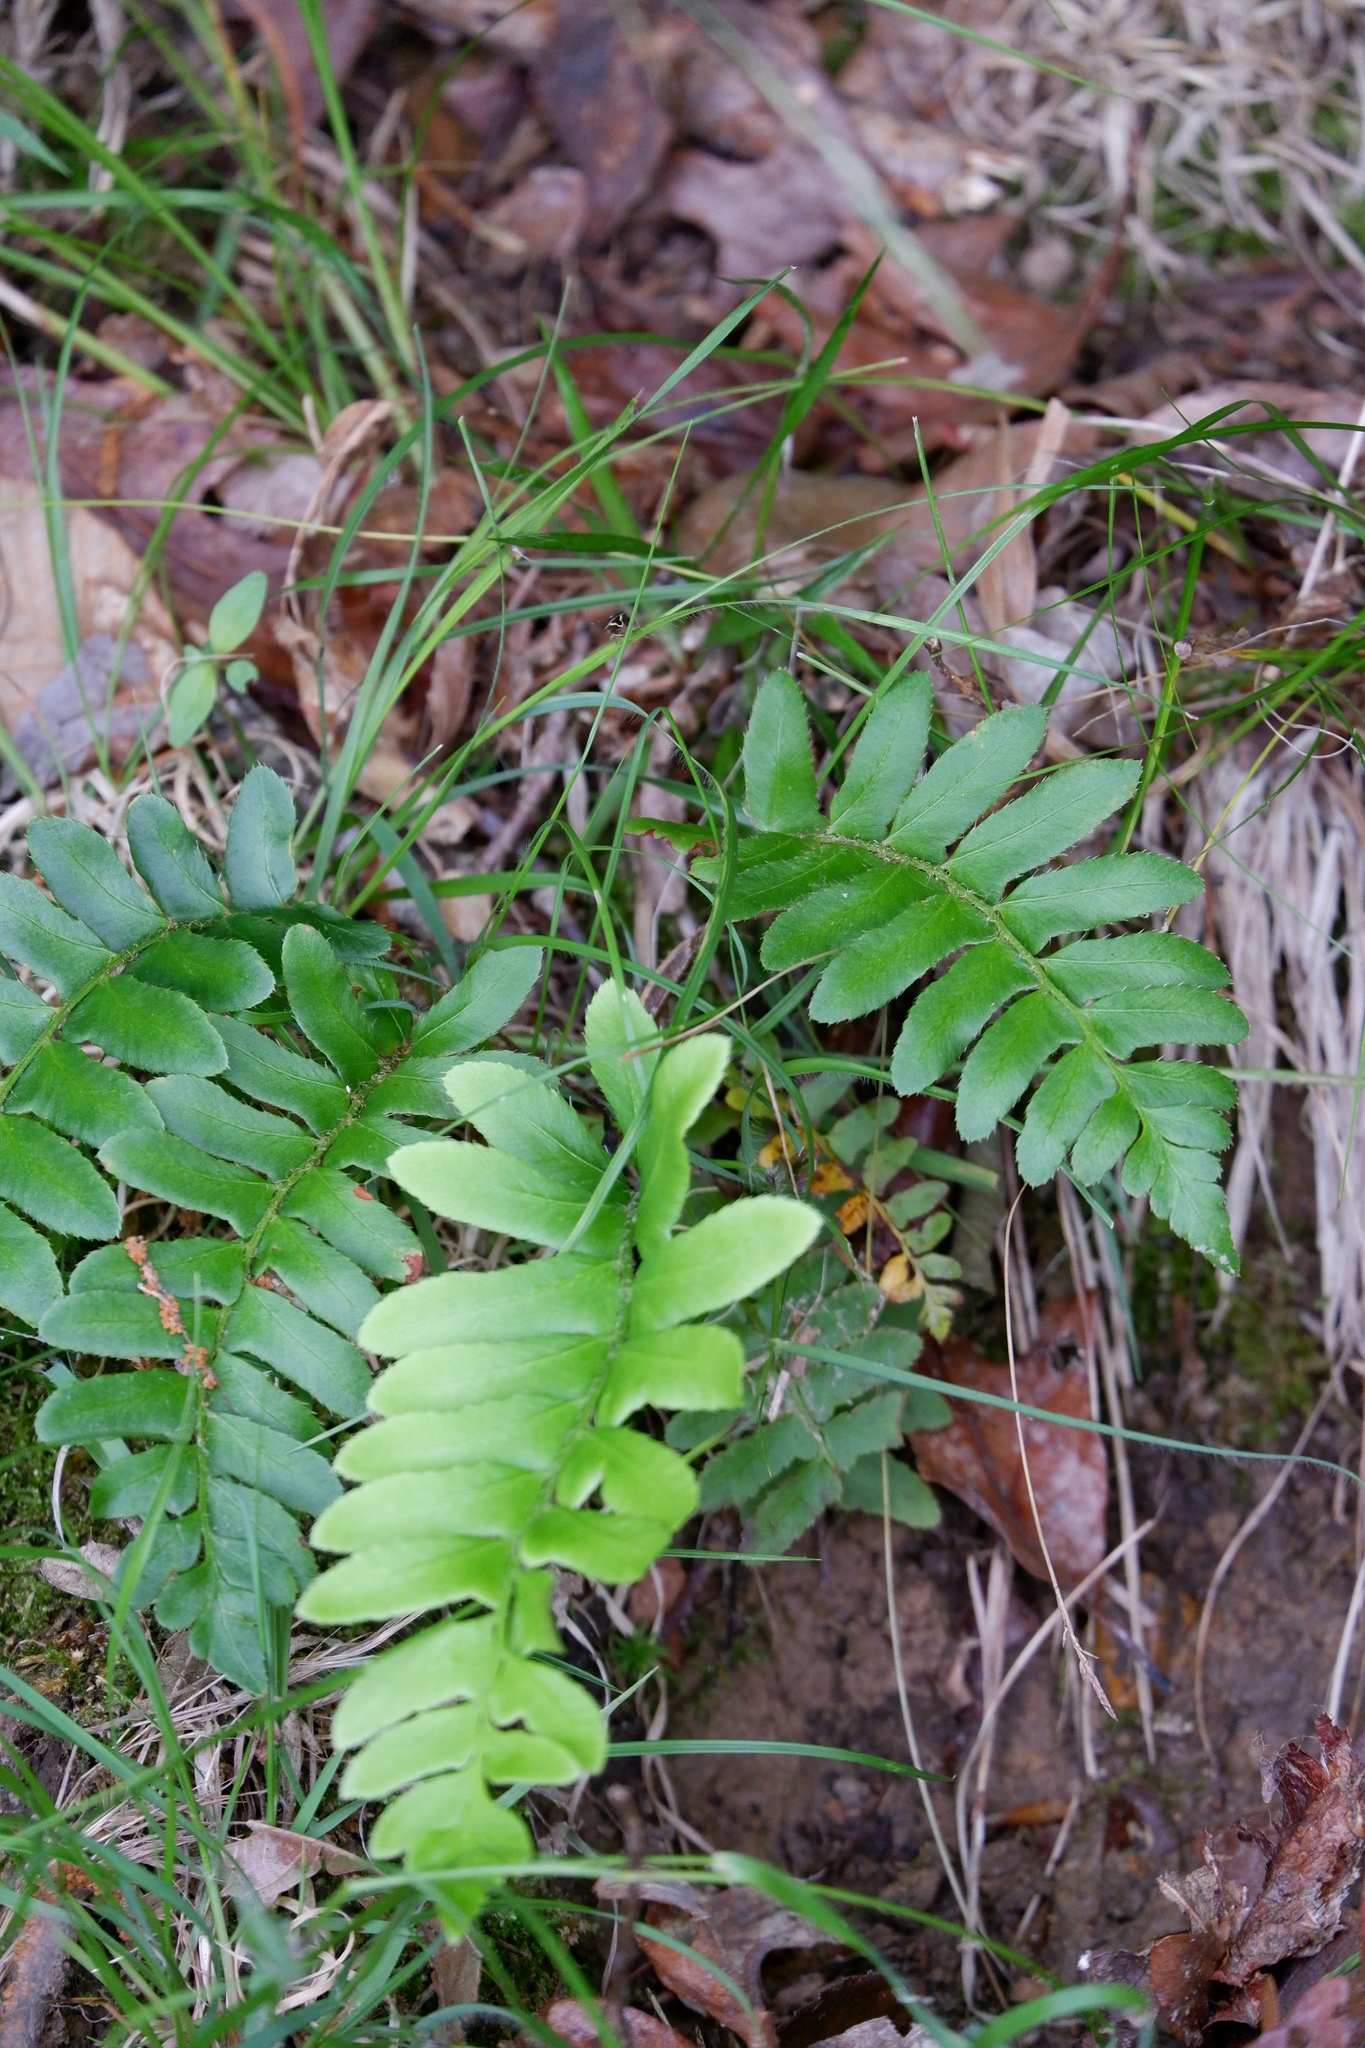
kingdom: Plantae
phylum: Tracheophyta
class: Polypodiopsida
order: Polypodiales
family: Dryopteridaceae
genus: Polystichum
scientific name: Polystichum acrostichoides
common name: Christmas fern
